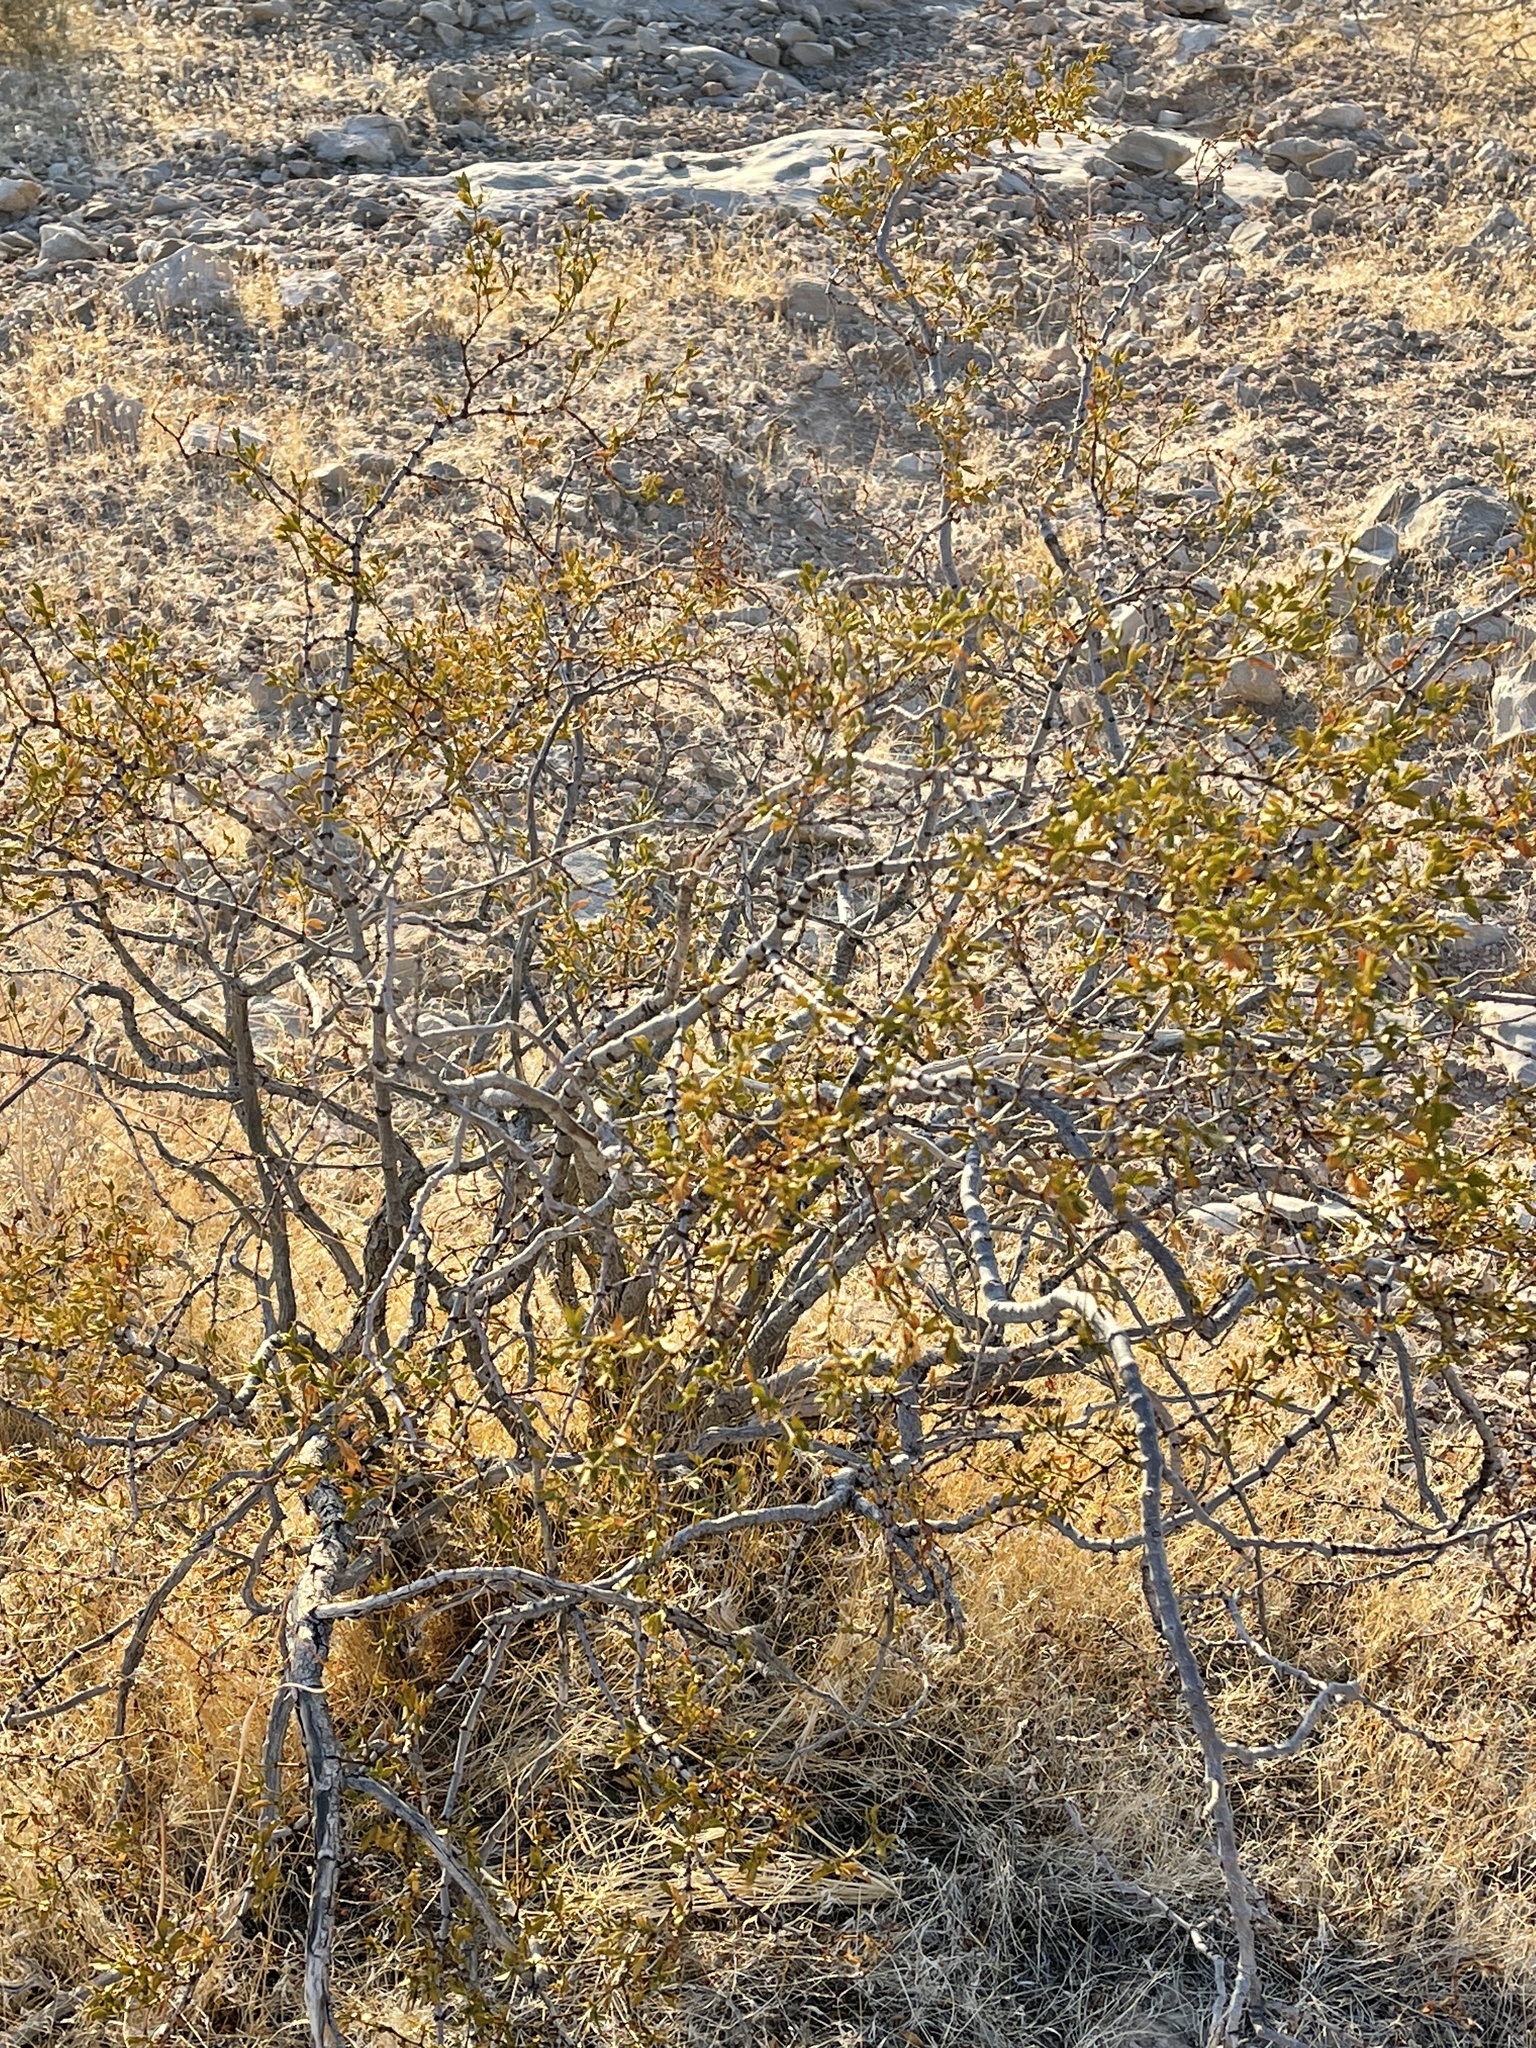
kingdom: Plantae
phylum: Tracheophyta
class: Magnoliopsida
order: Zygophyllales
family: Zygophyllaceae
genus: Larrea
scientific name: Larrea tridentata
